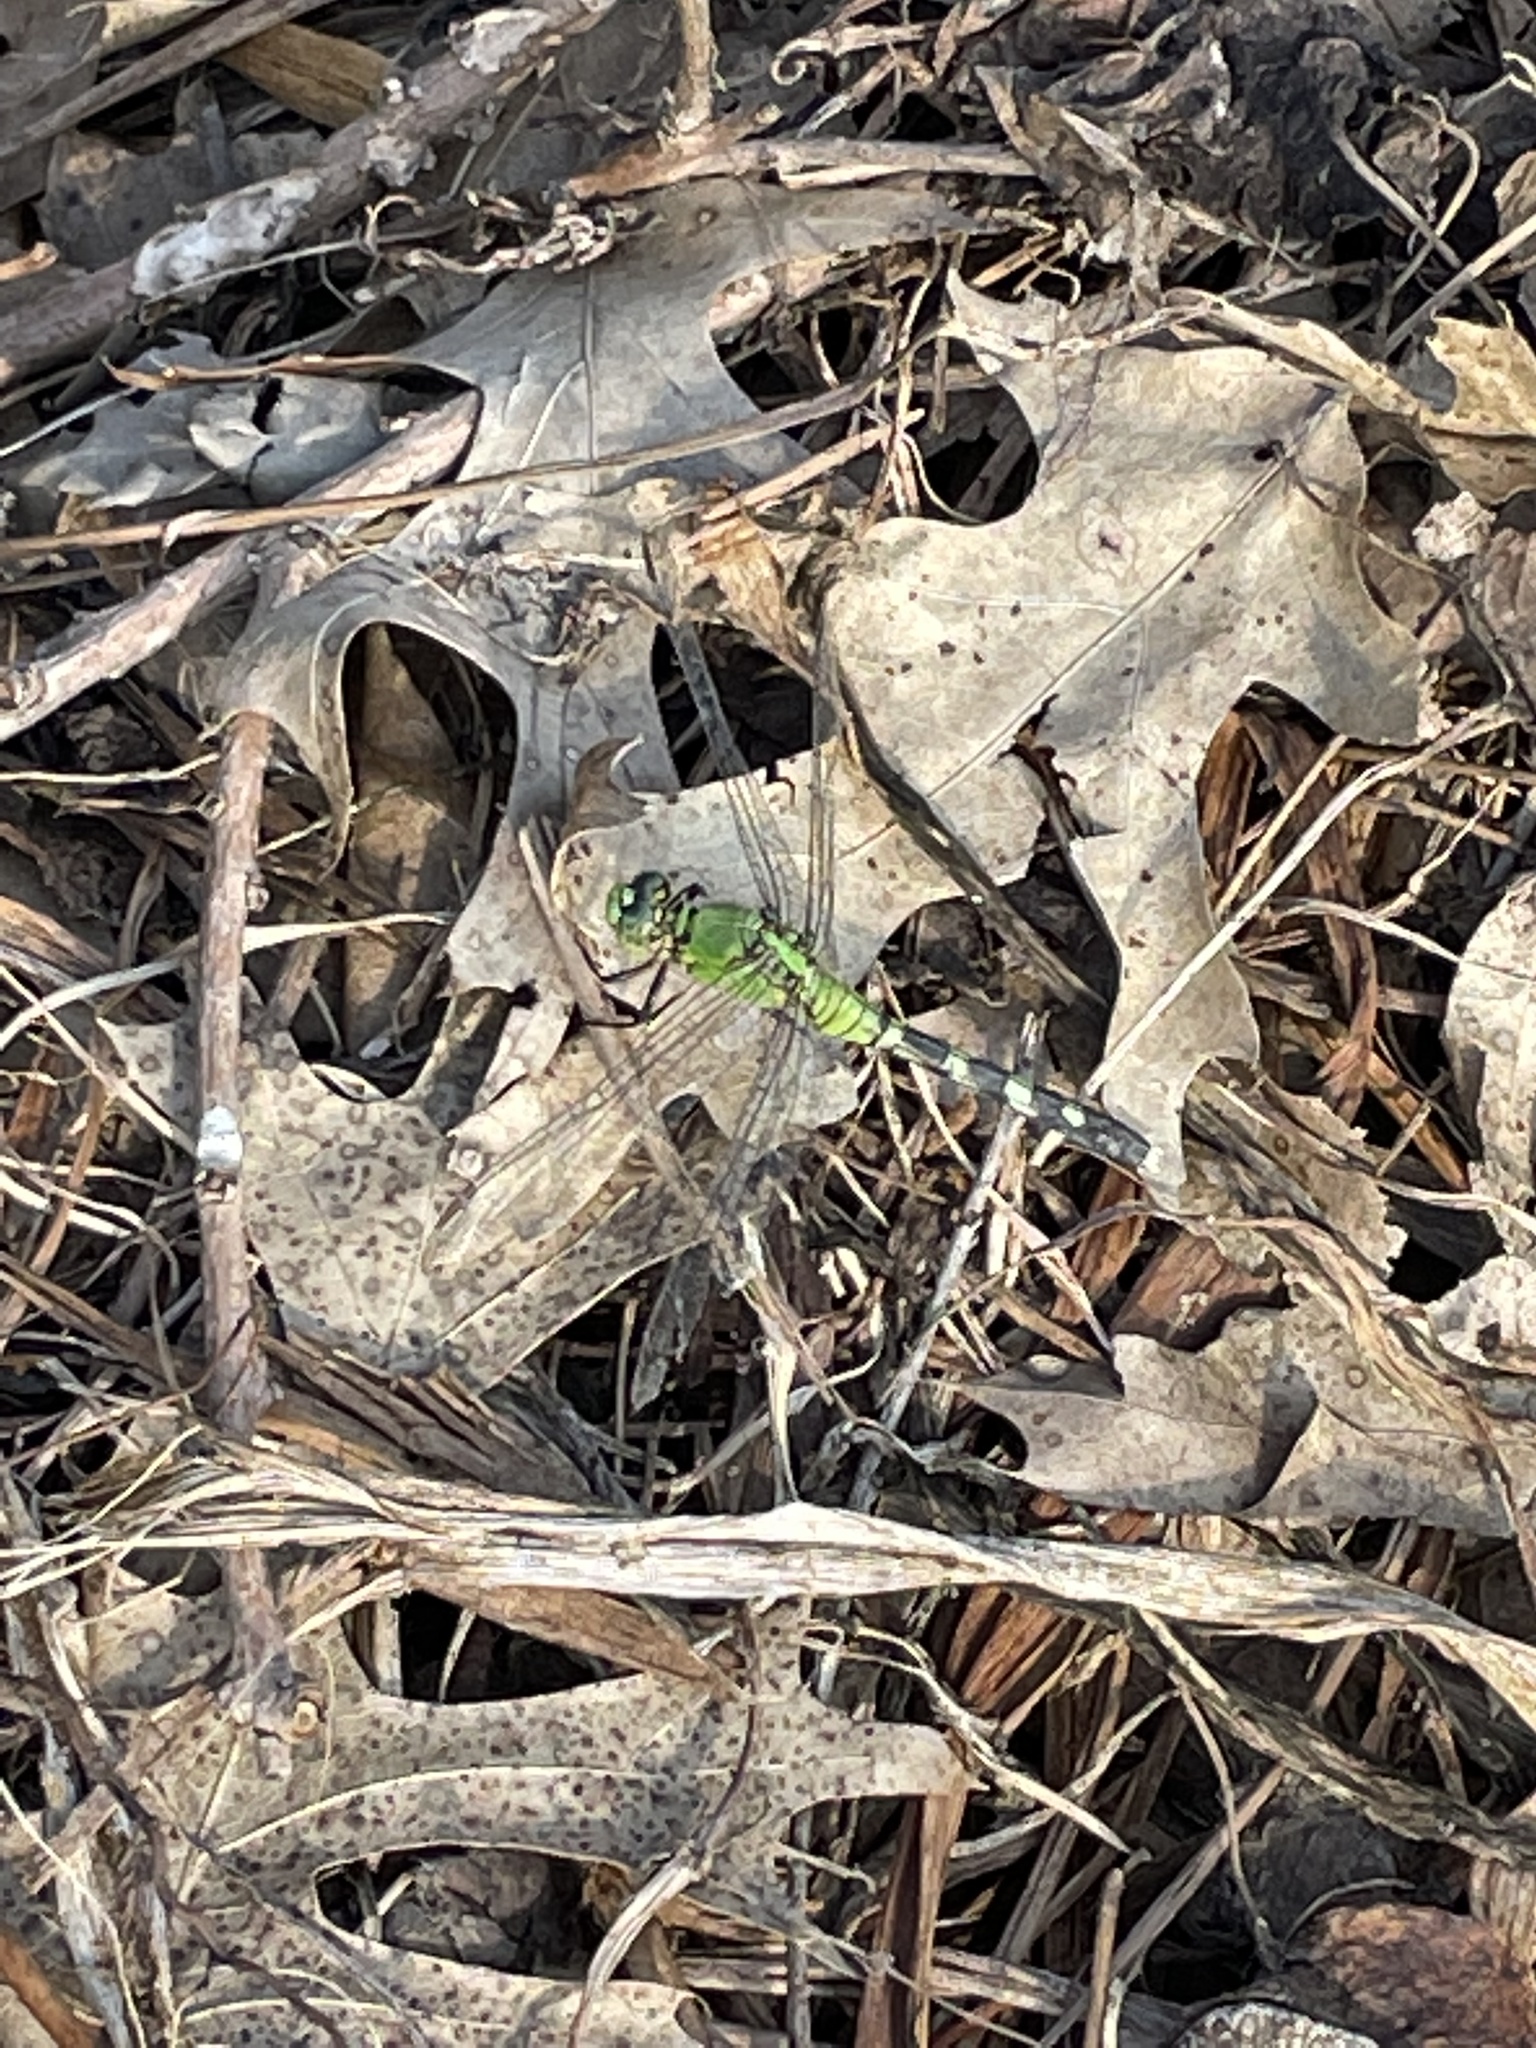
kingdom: Animalia
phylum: Arthropoda
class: Insecta
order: Odonata
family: Libellulidae
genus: Erythemis
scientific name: Erythemis simplicicollis
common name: Eastern pondhawk
